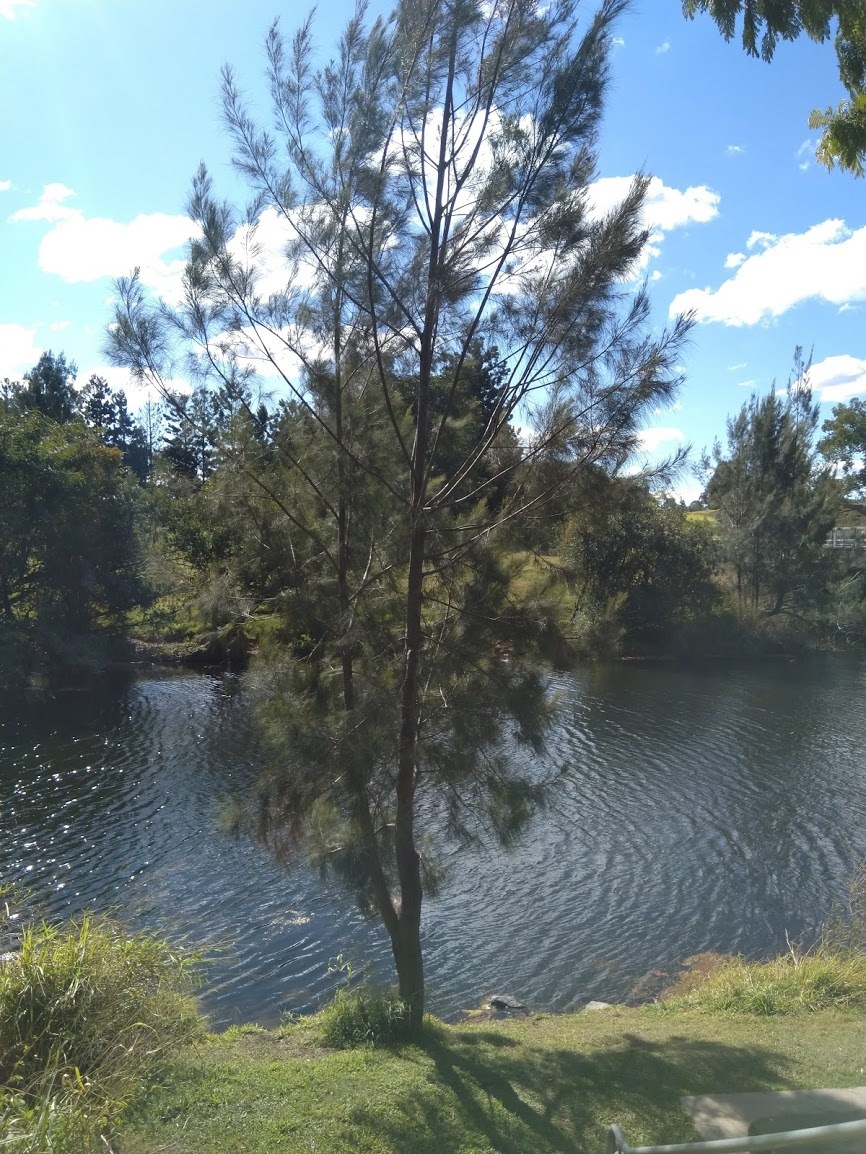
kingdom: Plantae
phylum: Tracheophyta
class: Magnoliopsida
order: Fagales
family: Casuarinaceae
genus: Casuarina
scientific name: Casuarina cunninghamiana
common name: River sheoak
